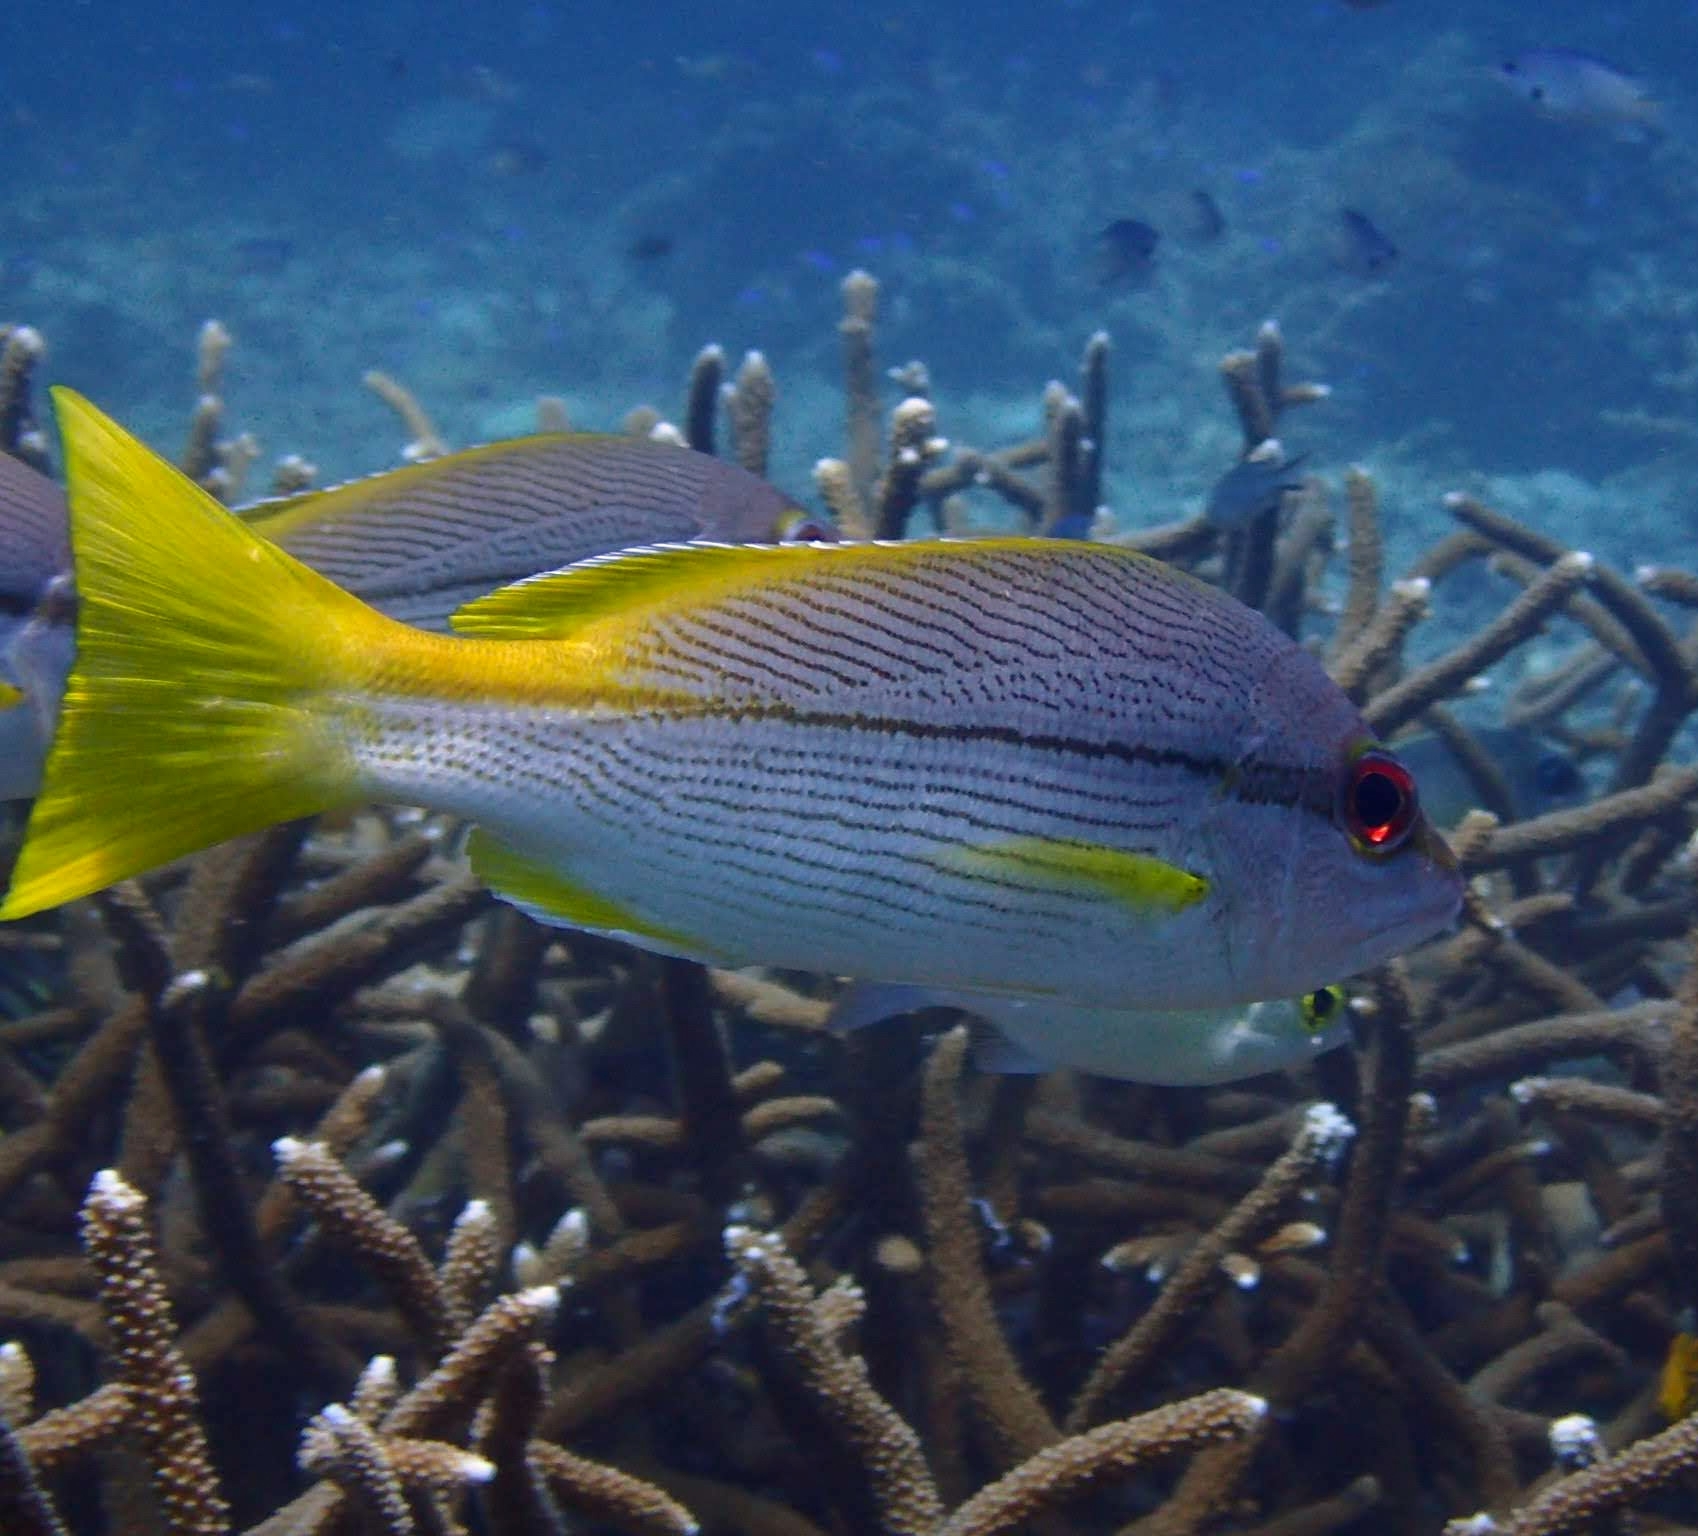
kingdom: Animalia
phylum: Chordata
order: Perciformes
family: Lutjanidae
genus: Lutjanus
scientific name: Lutjanus vitta
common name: Brownstripe red snapper
